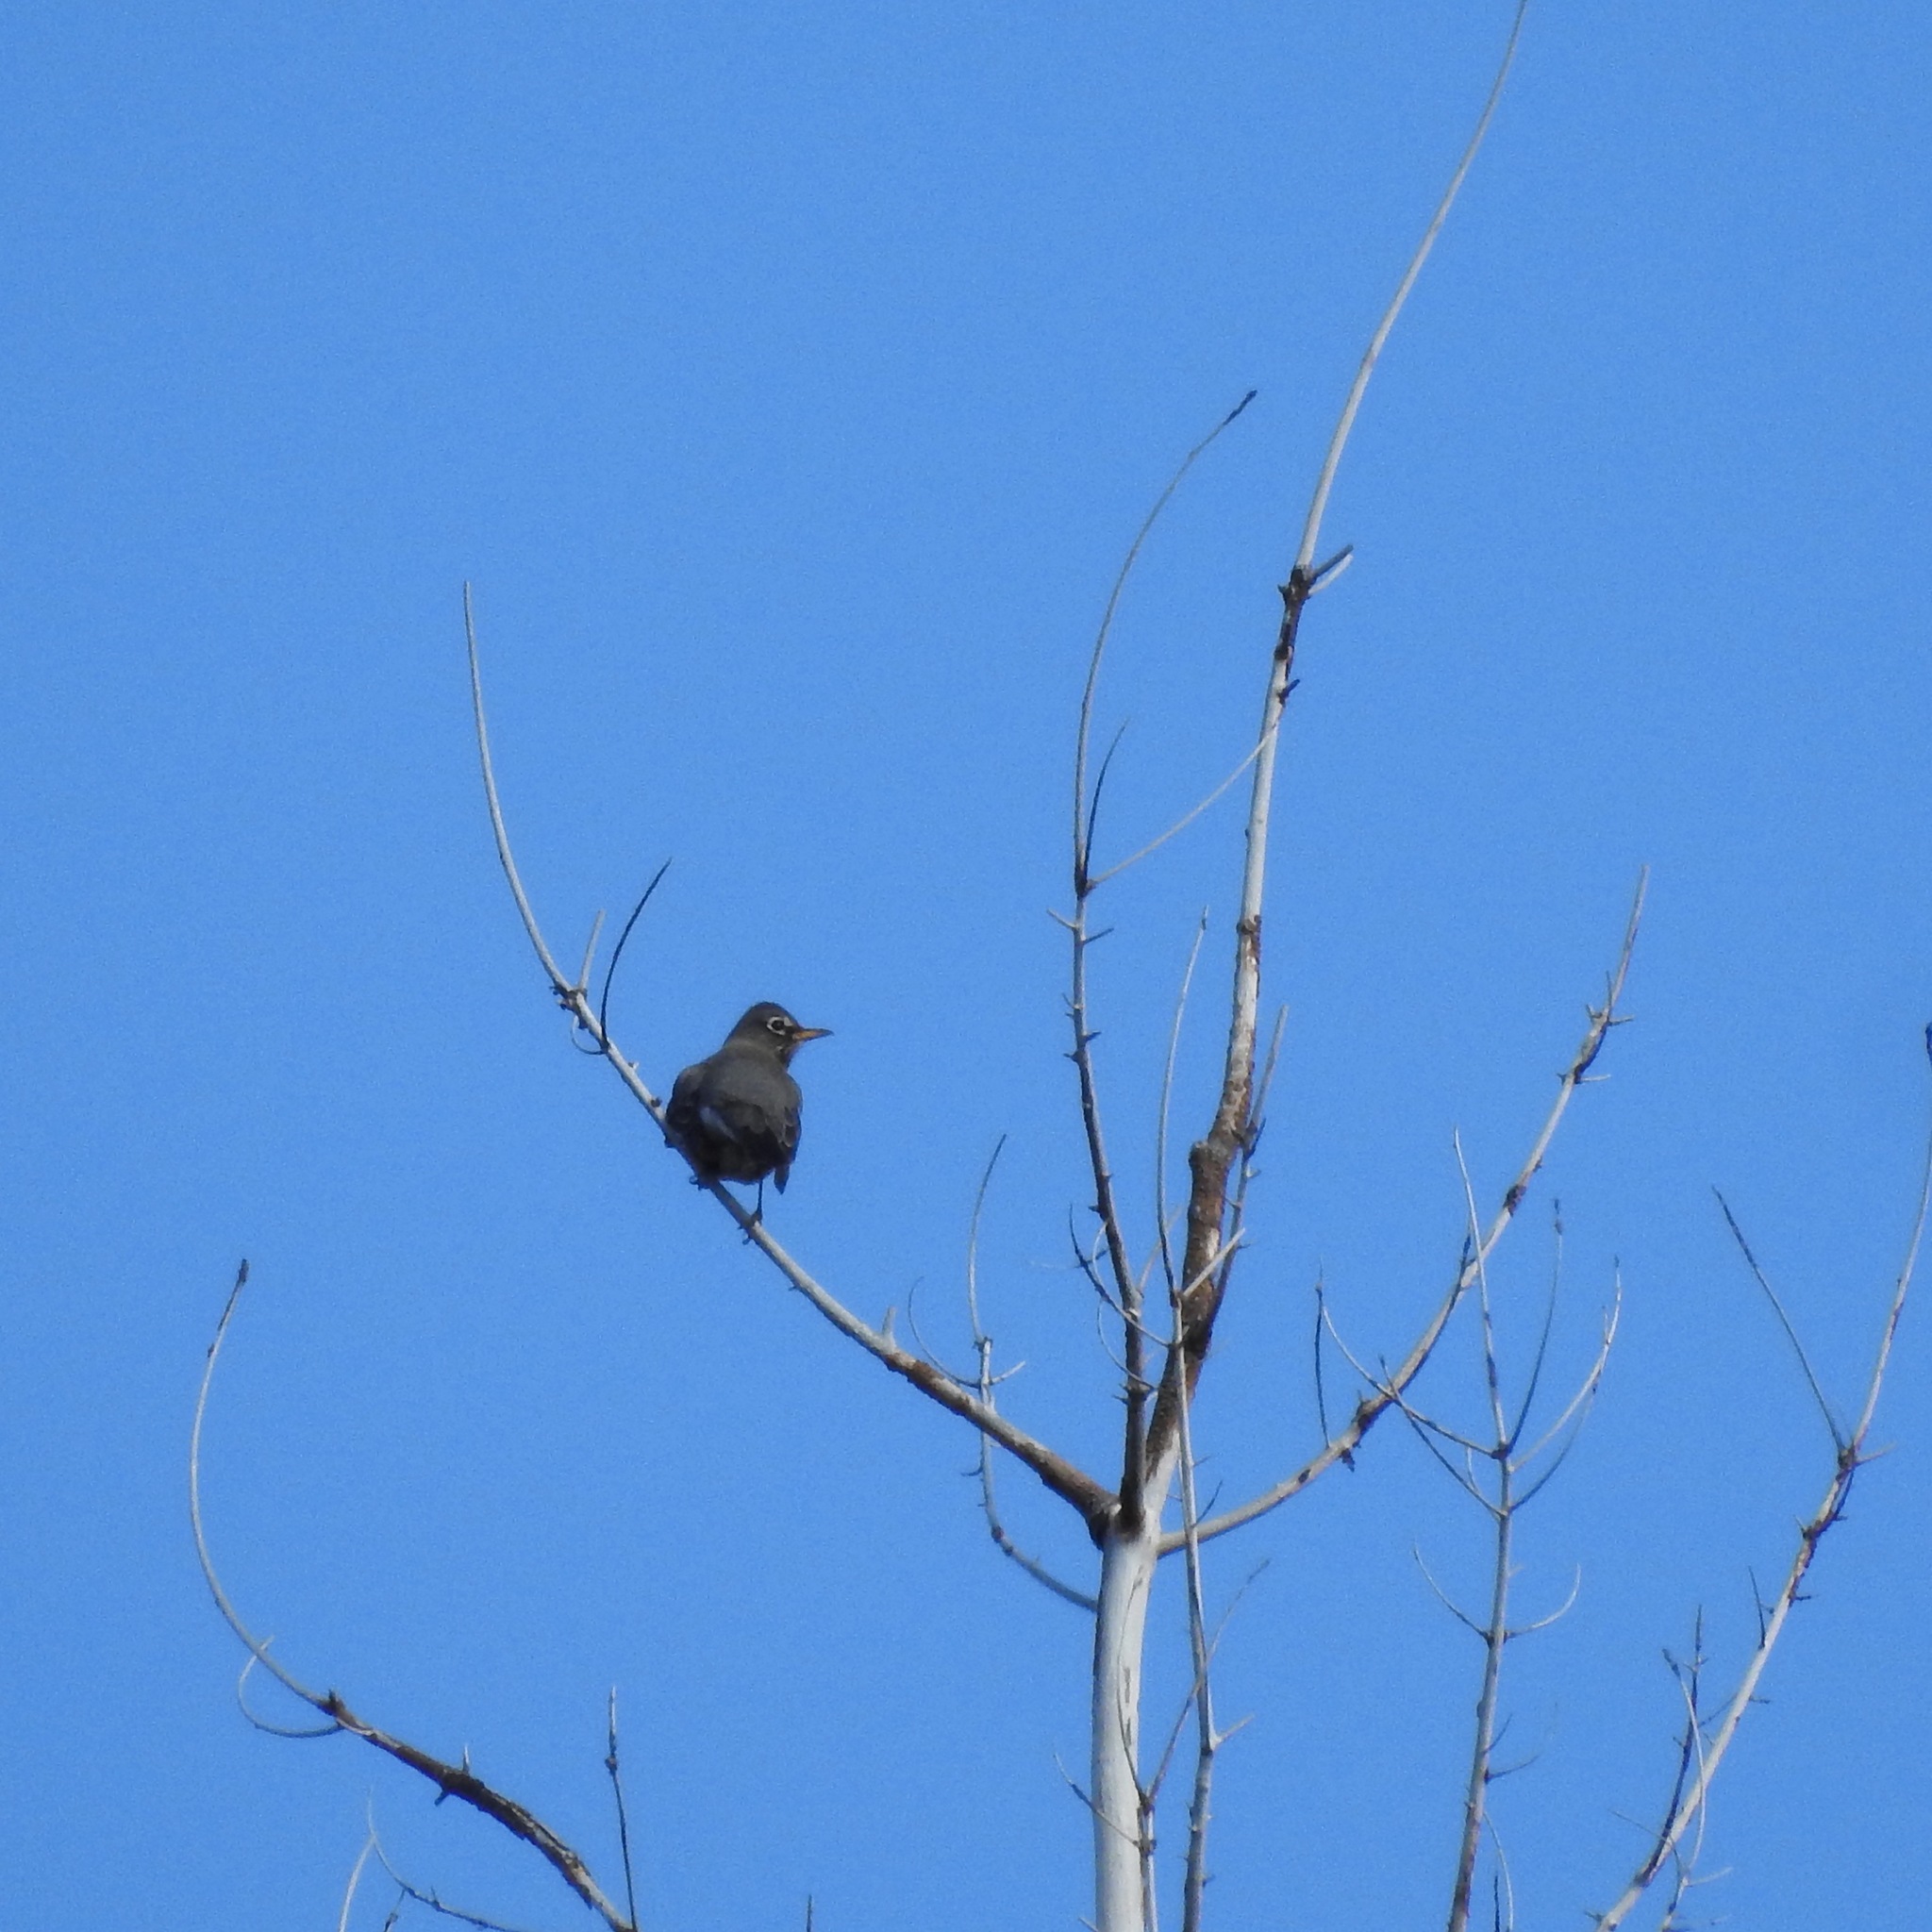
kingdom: Animalia
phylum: Chordata
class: Aves
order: Passeriformes
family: Turdidae
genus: Turdus
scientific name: Turdus migratorius
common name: American robin
